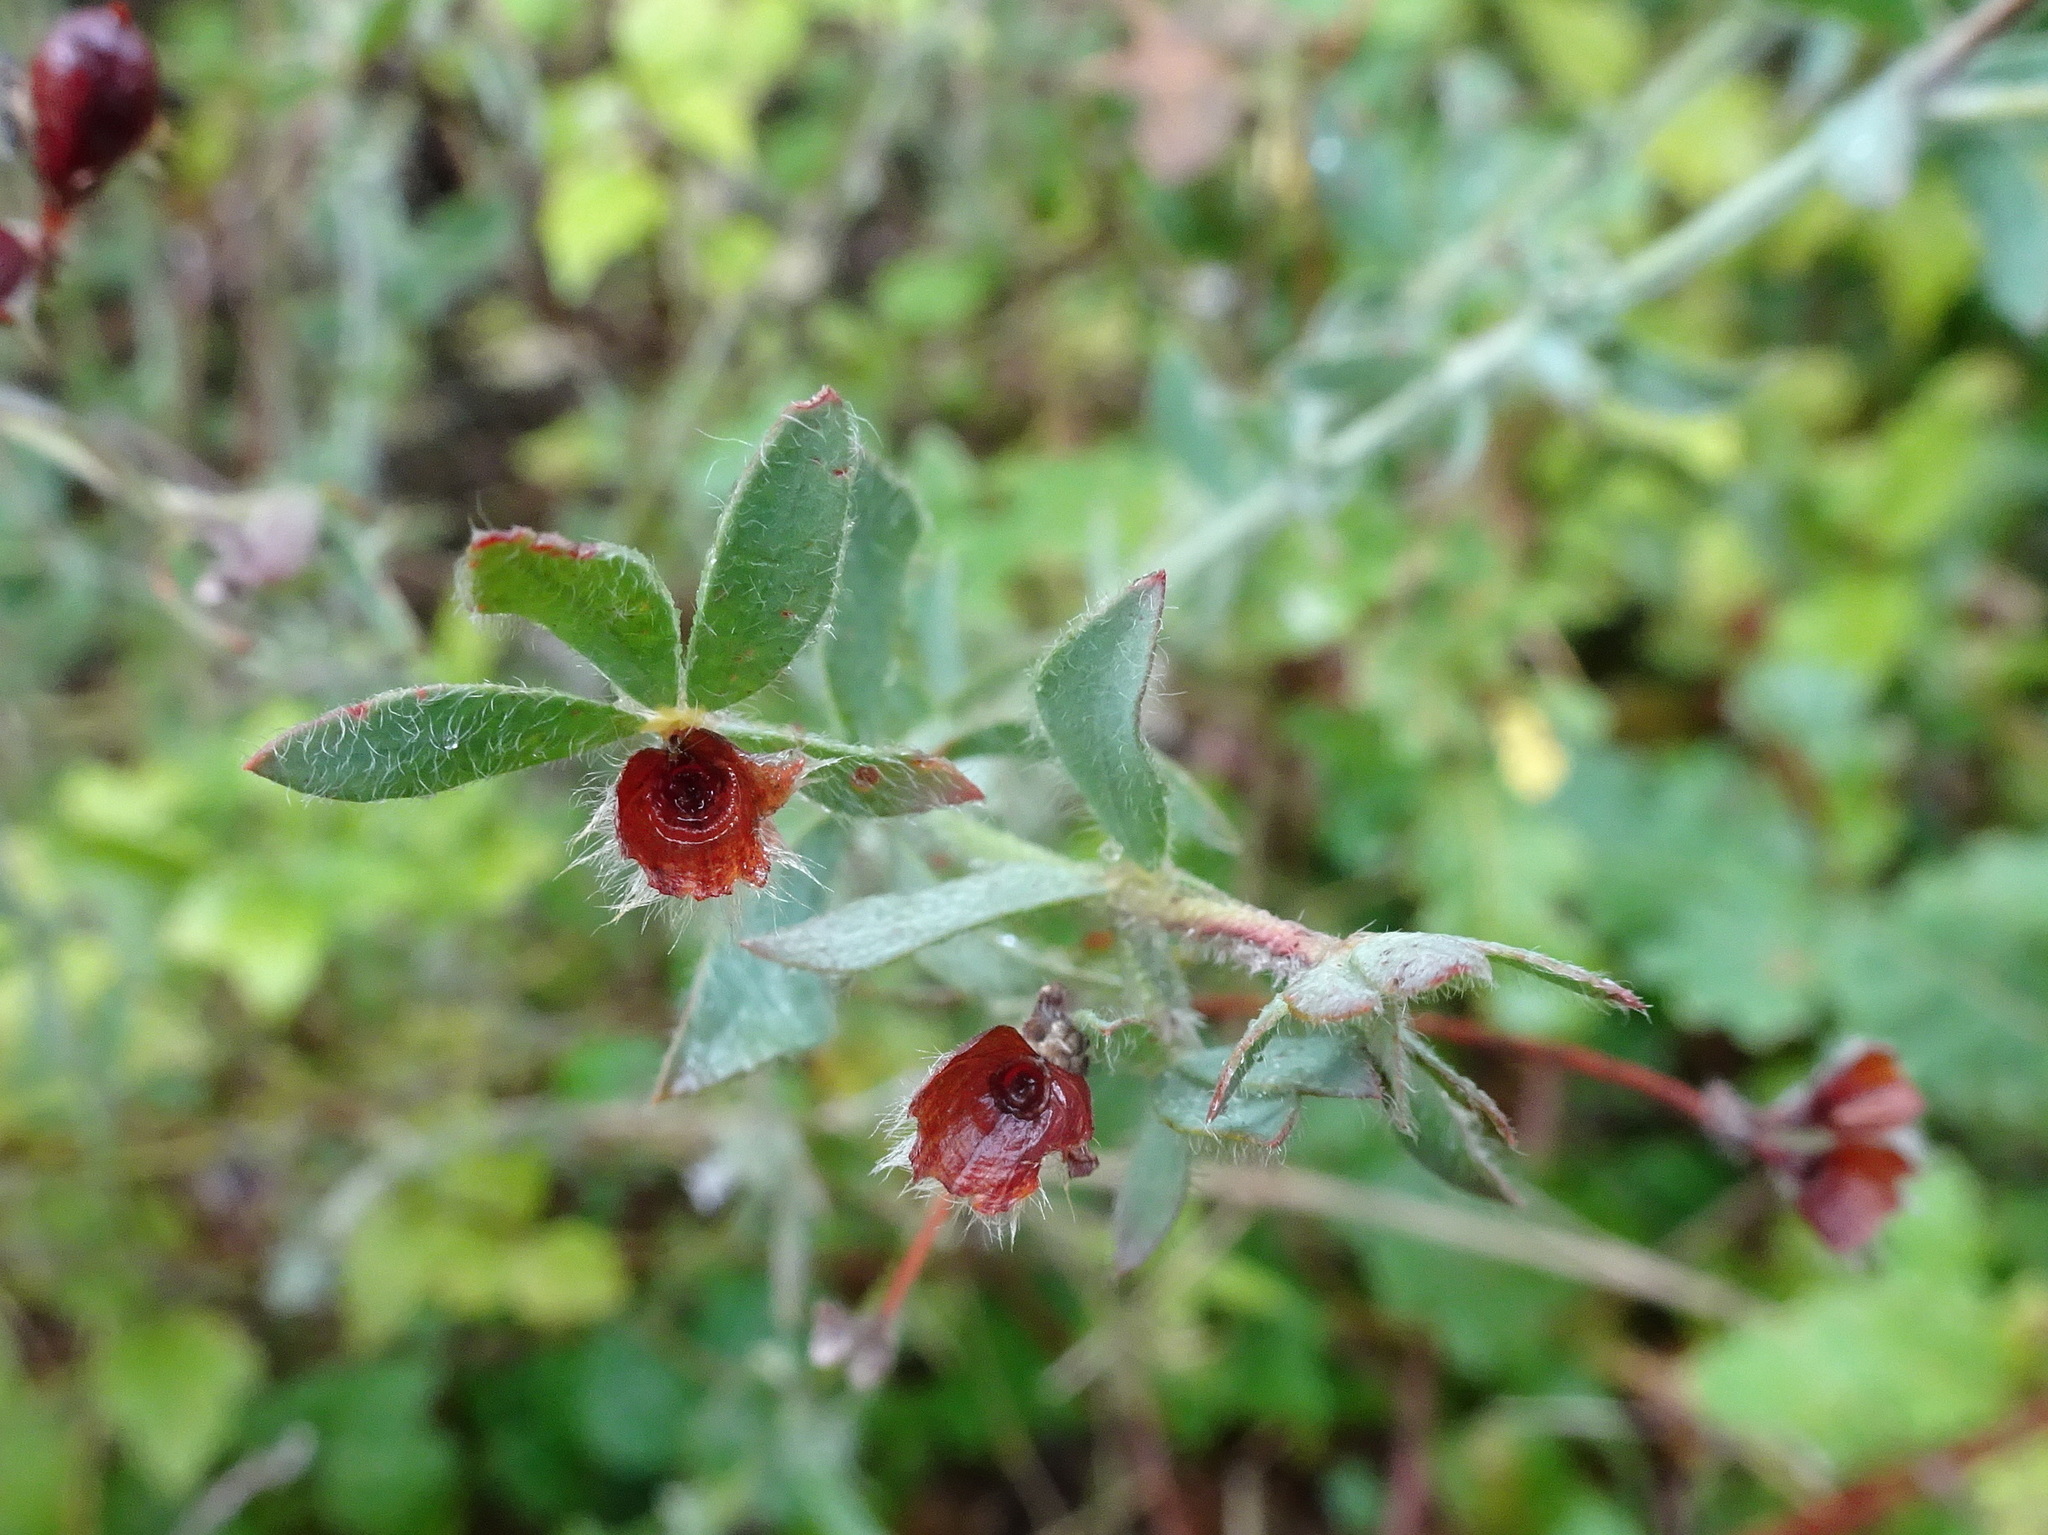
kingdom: Plantae
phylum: Tracheophyta
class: Magnoliopsida
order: Fabales
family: Fabaceae
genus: Lotus
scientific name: Lotus hirsutus
